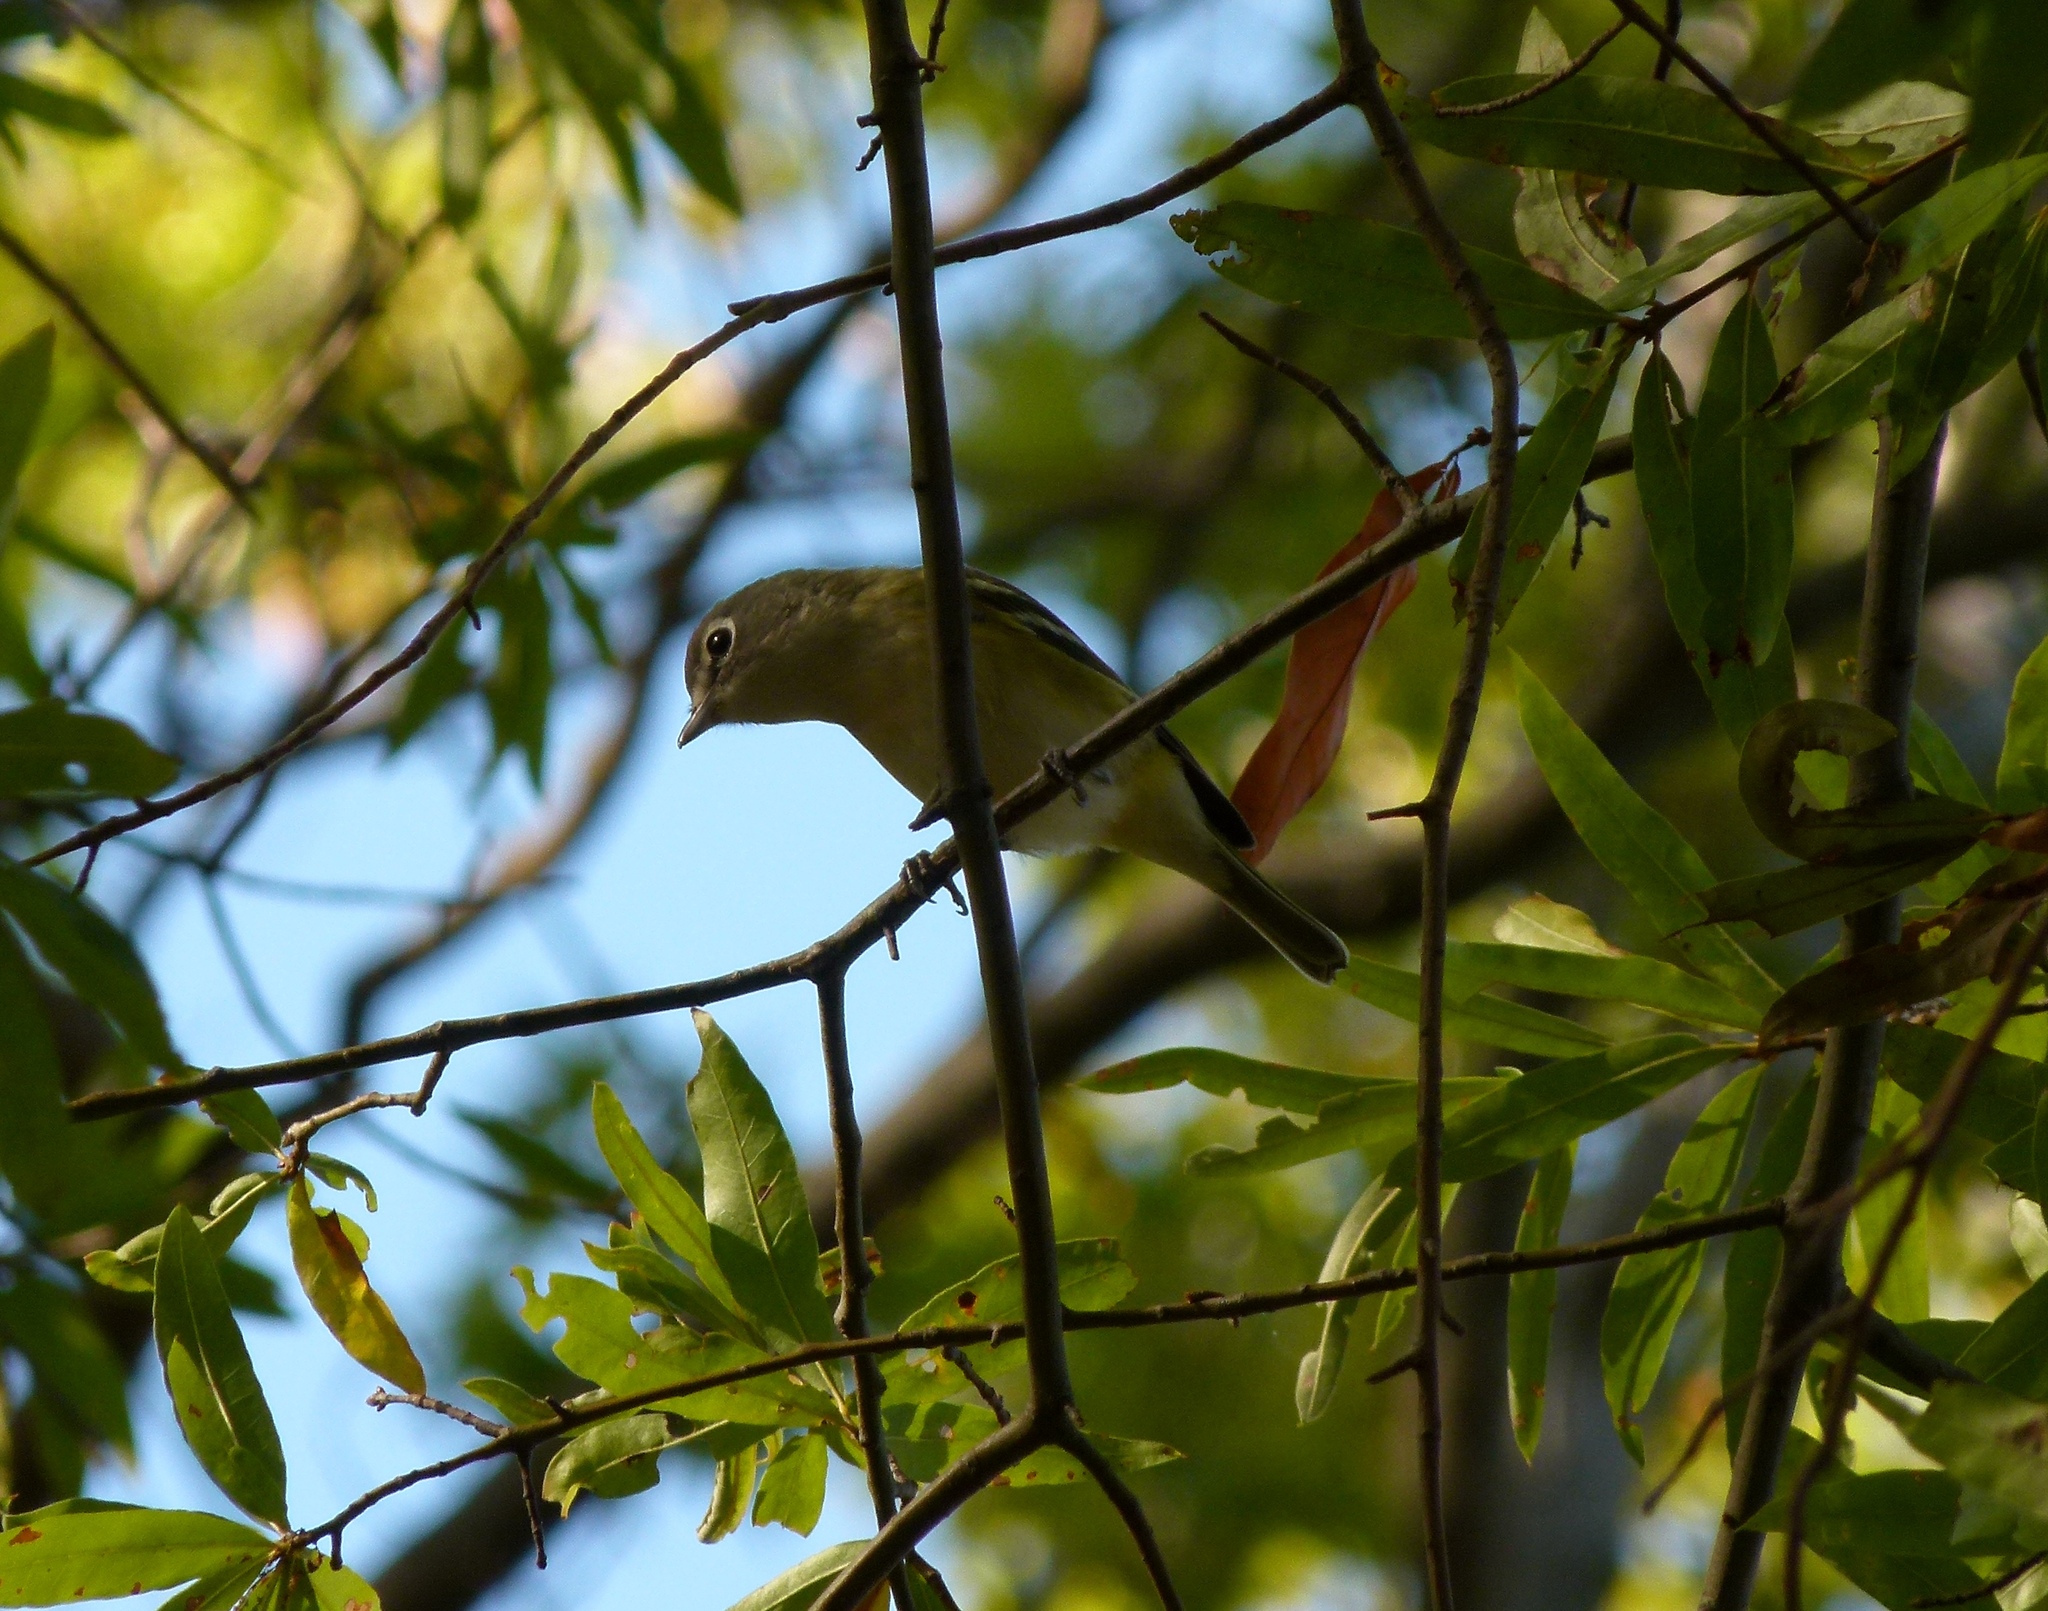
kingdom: Animalia
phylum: Chordata
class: Aves
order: Passeriformes
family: Vireonidae
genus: Vireo
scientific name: Vireo solitarius
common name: Blue-headed vireo
